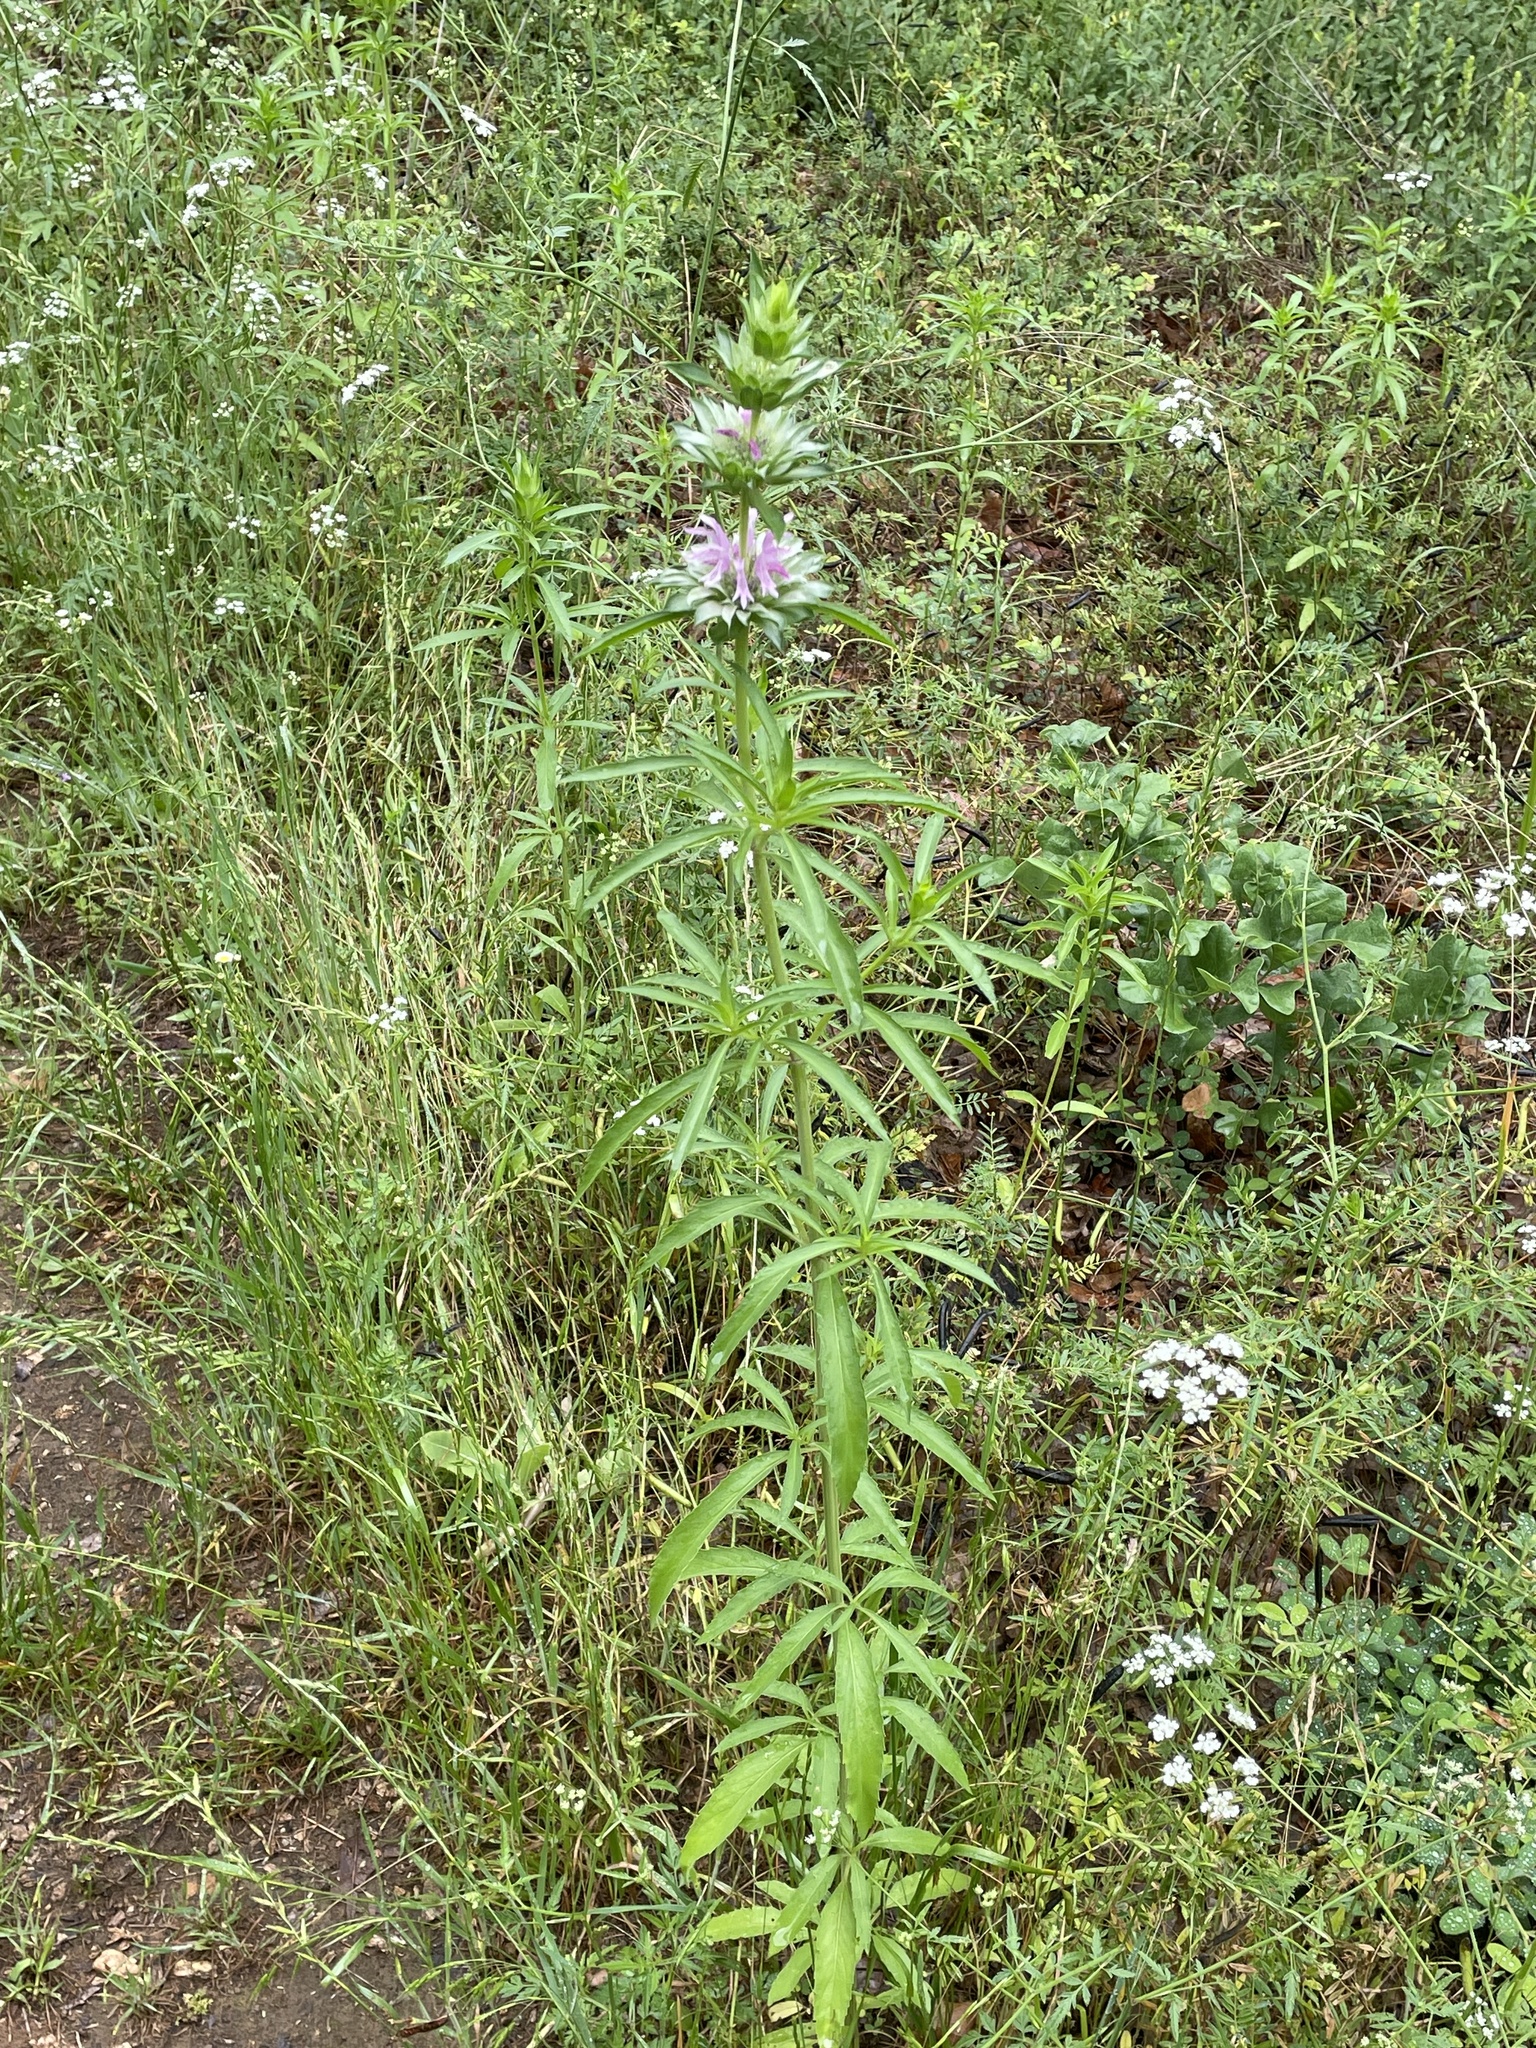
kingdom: Plantae
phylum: Tracheophyta
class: Magnoliopsida
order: Lamiales
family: Lamiaceae
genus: Monarda
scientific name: Monarda citriodora
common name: Lemon beebalm
